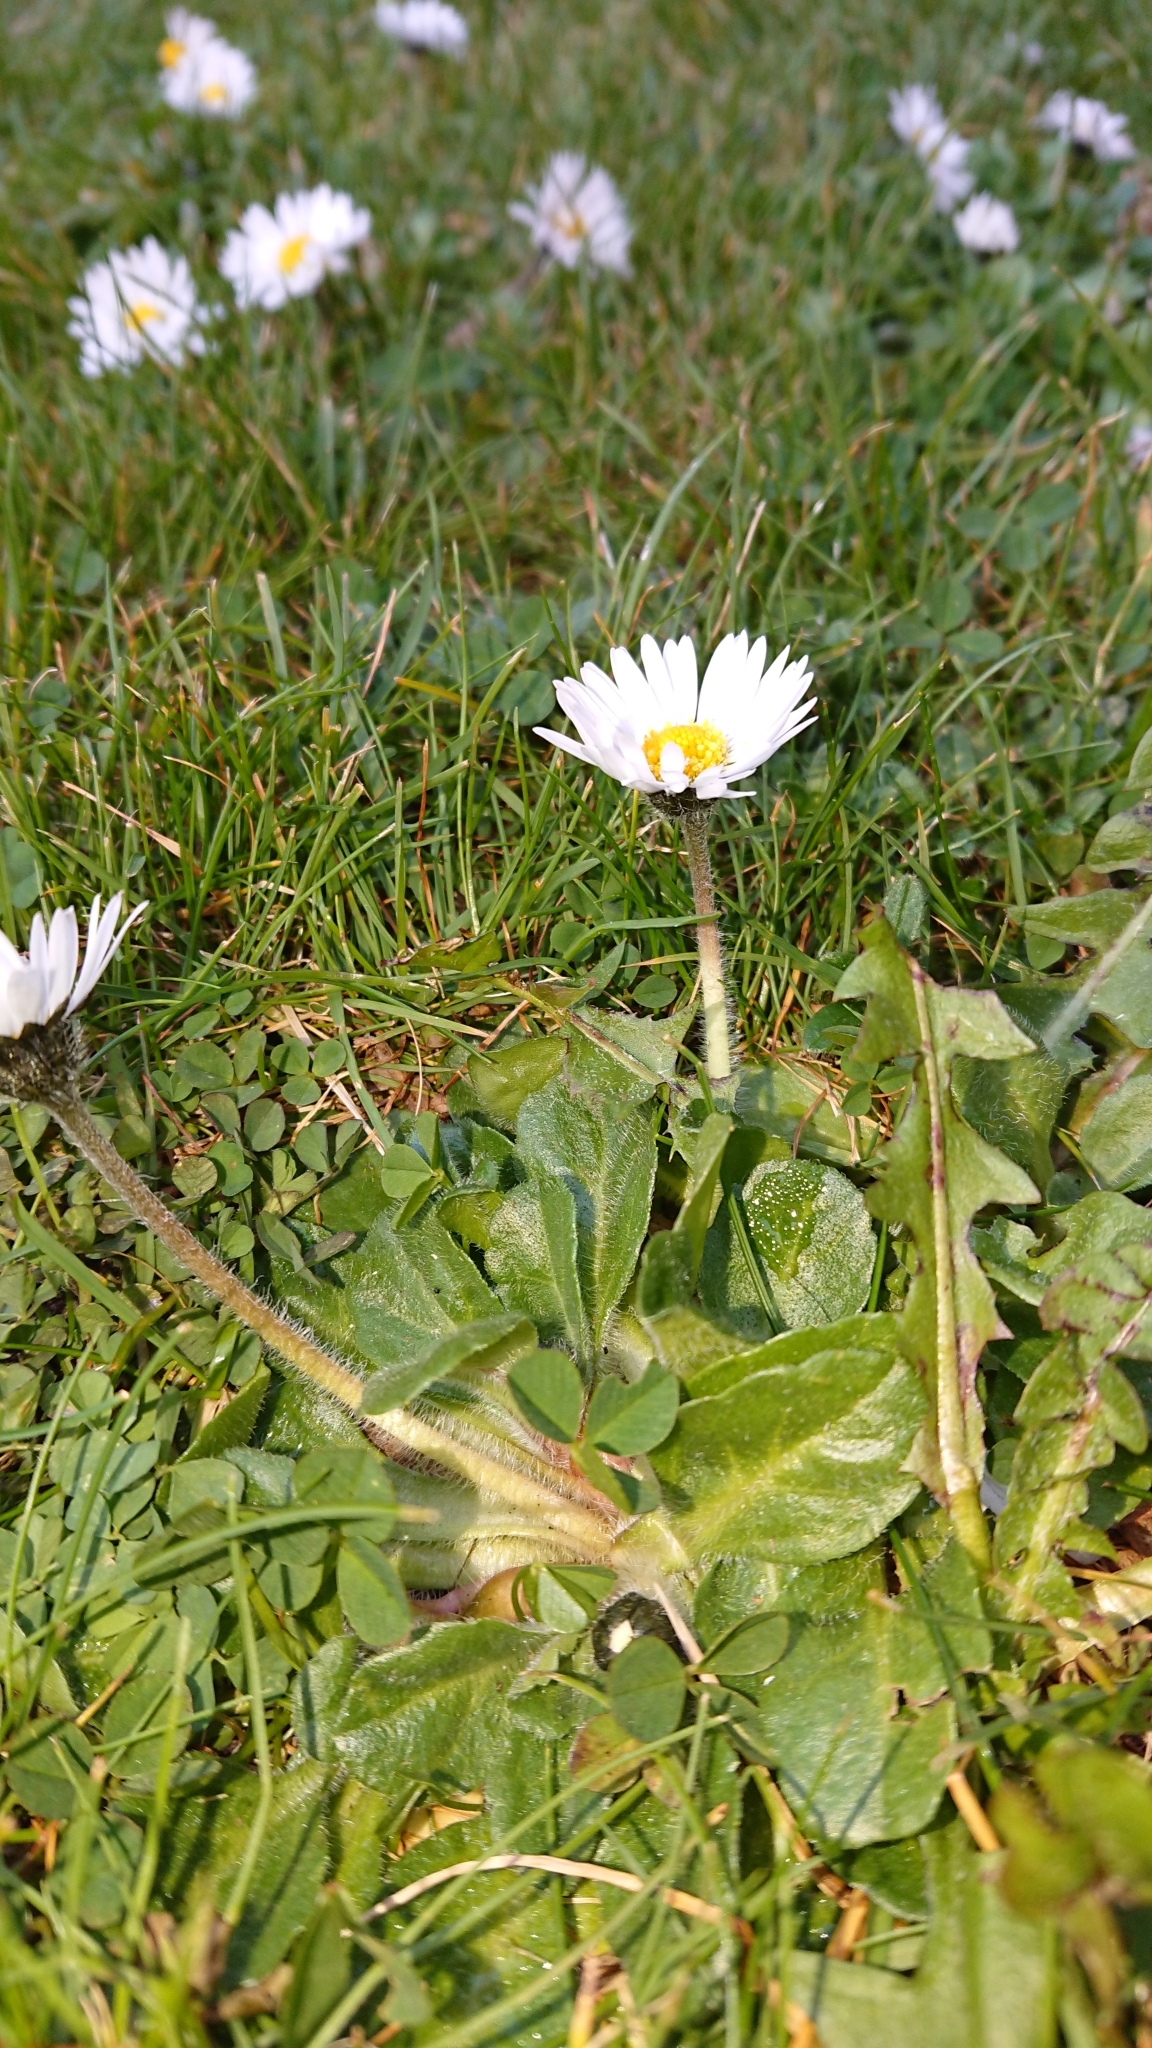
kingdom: Plantae
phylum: Tracheophyta
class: Magnoliopsida
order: Asterales
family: Asteraceae
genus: Bellis
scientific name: Bellis perennis
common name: Lawndaisy
